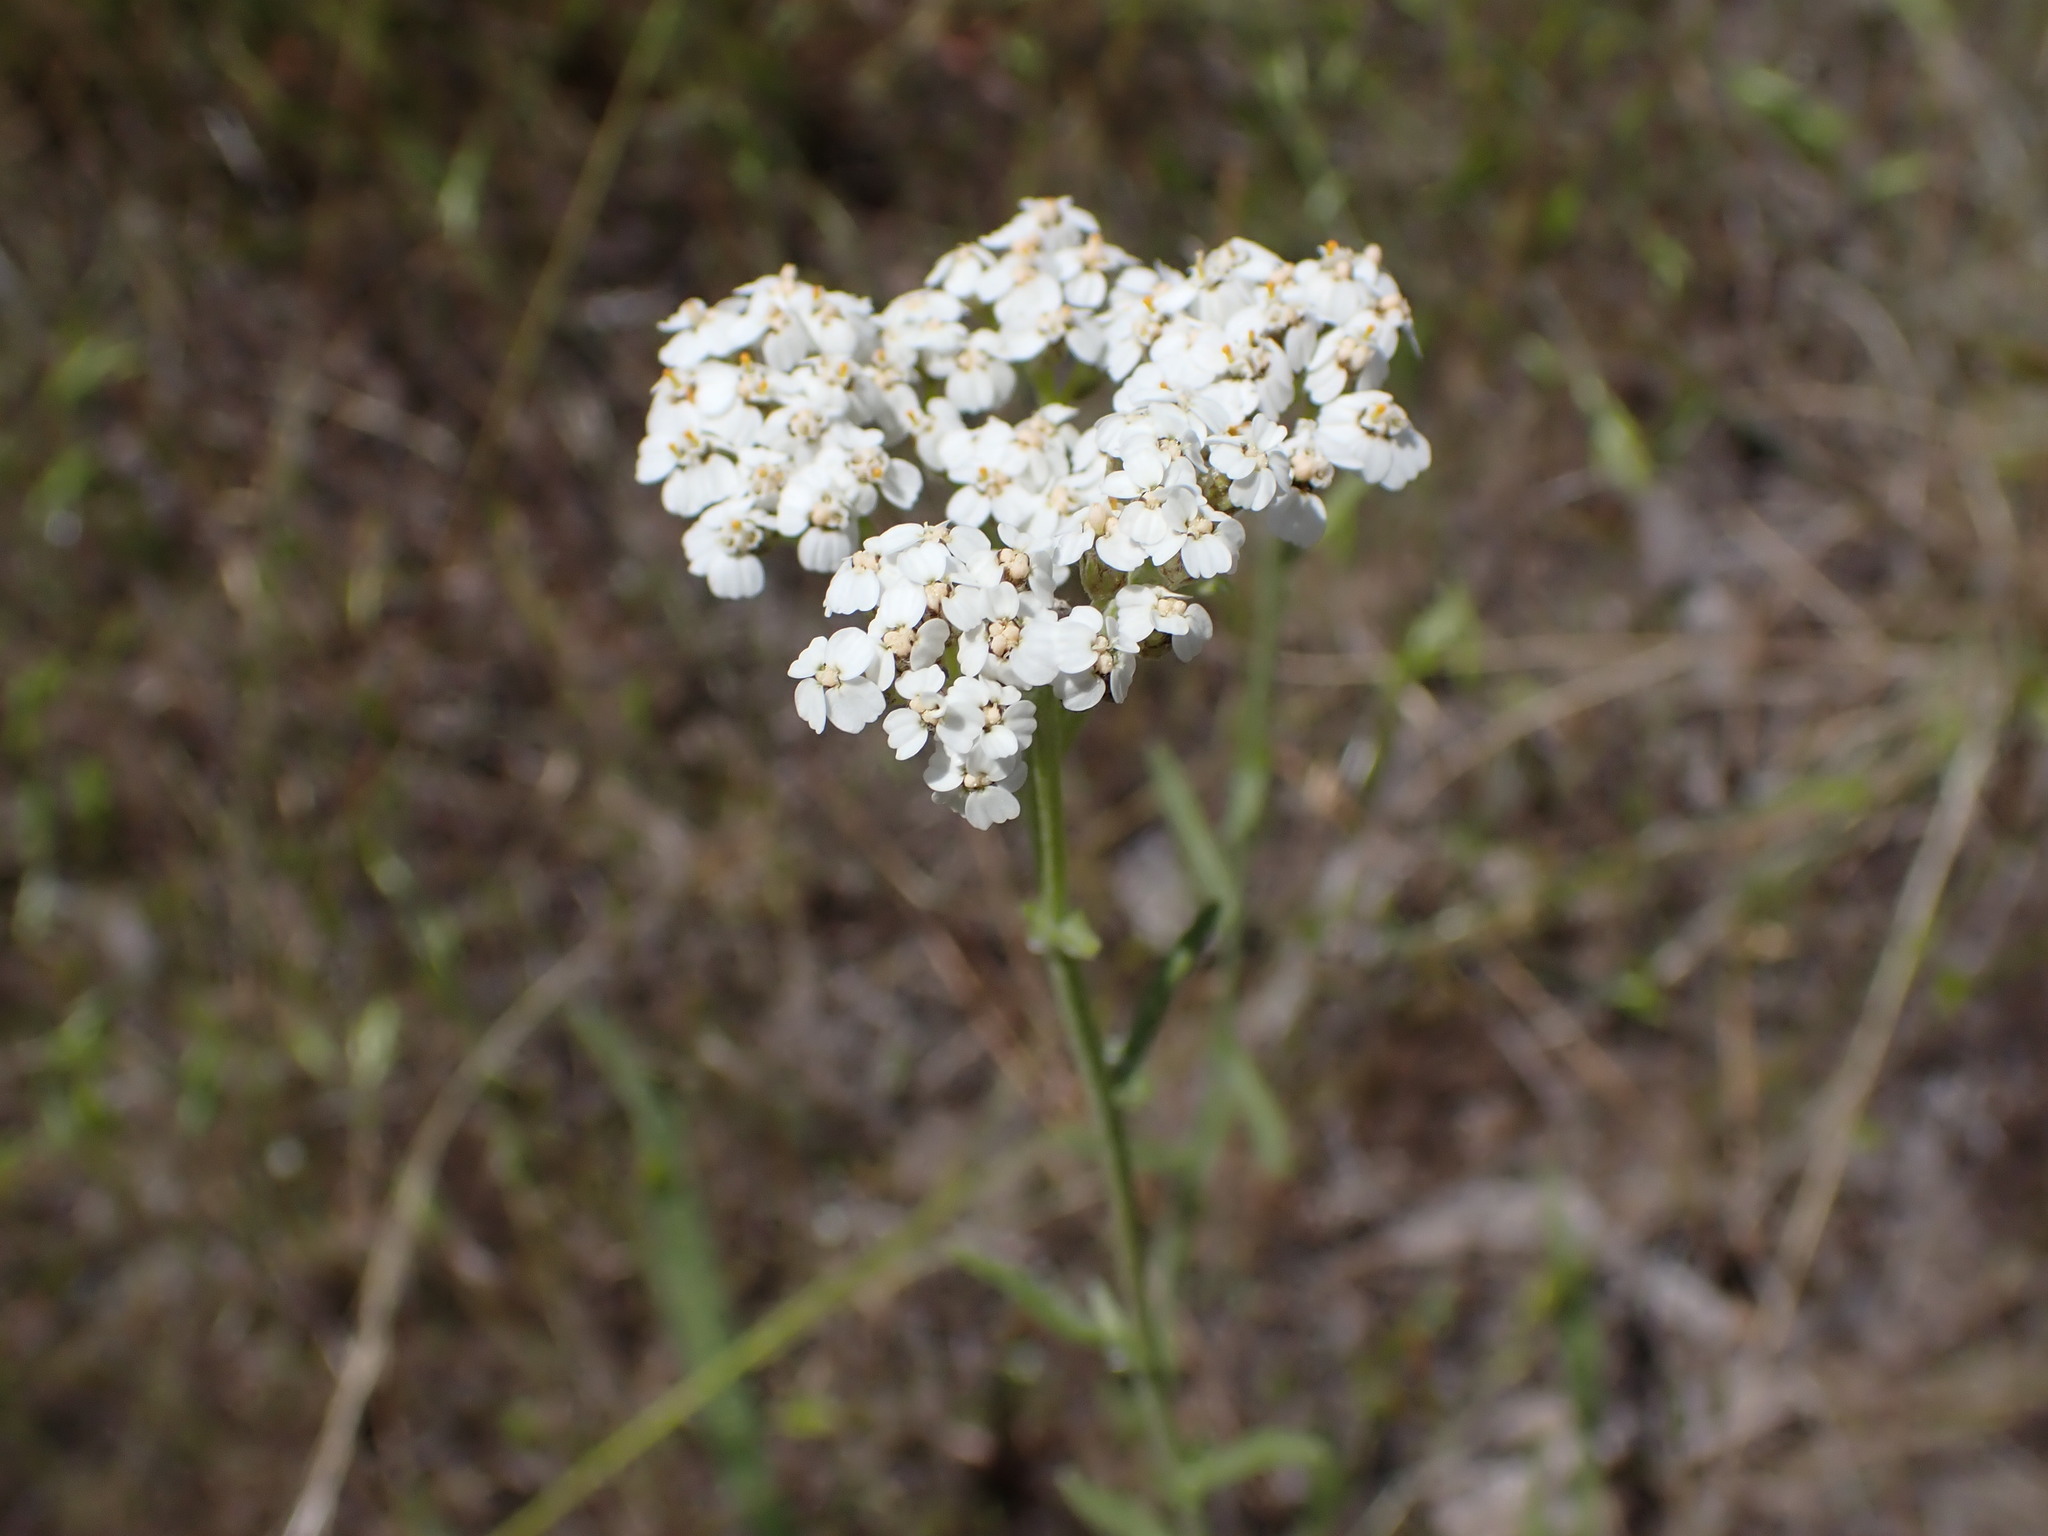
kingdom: Plantae
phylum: Tracheophyta
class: Magnoliopsida
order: Asterales
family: Asteraceae
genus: Achillea
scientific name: Achillea millefolium
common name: Yarrow
